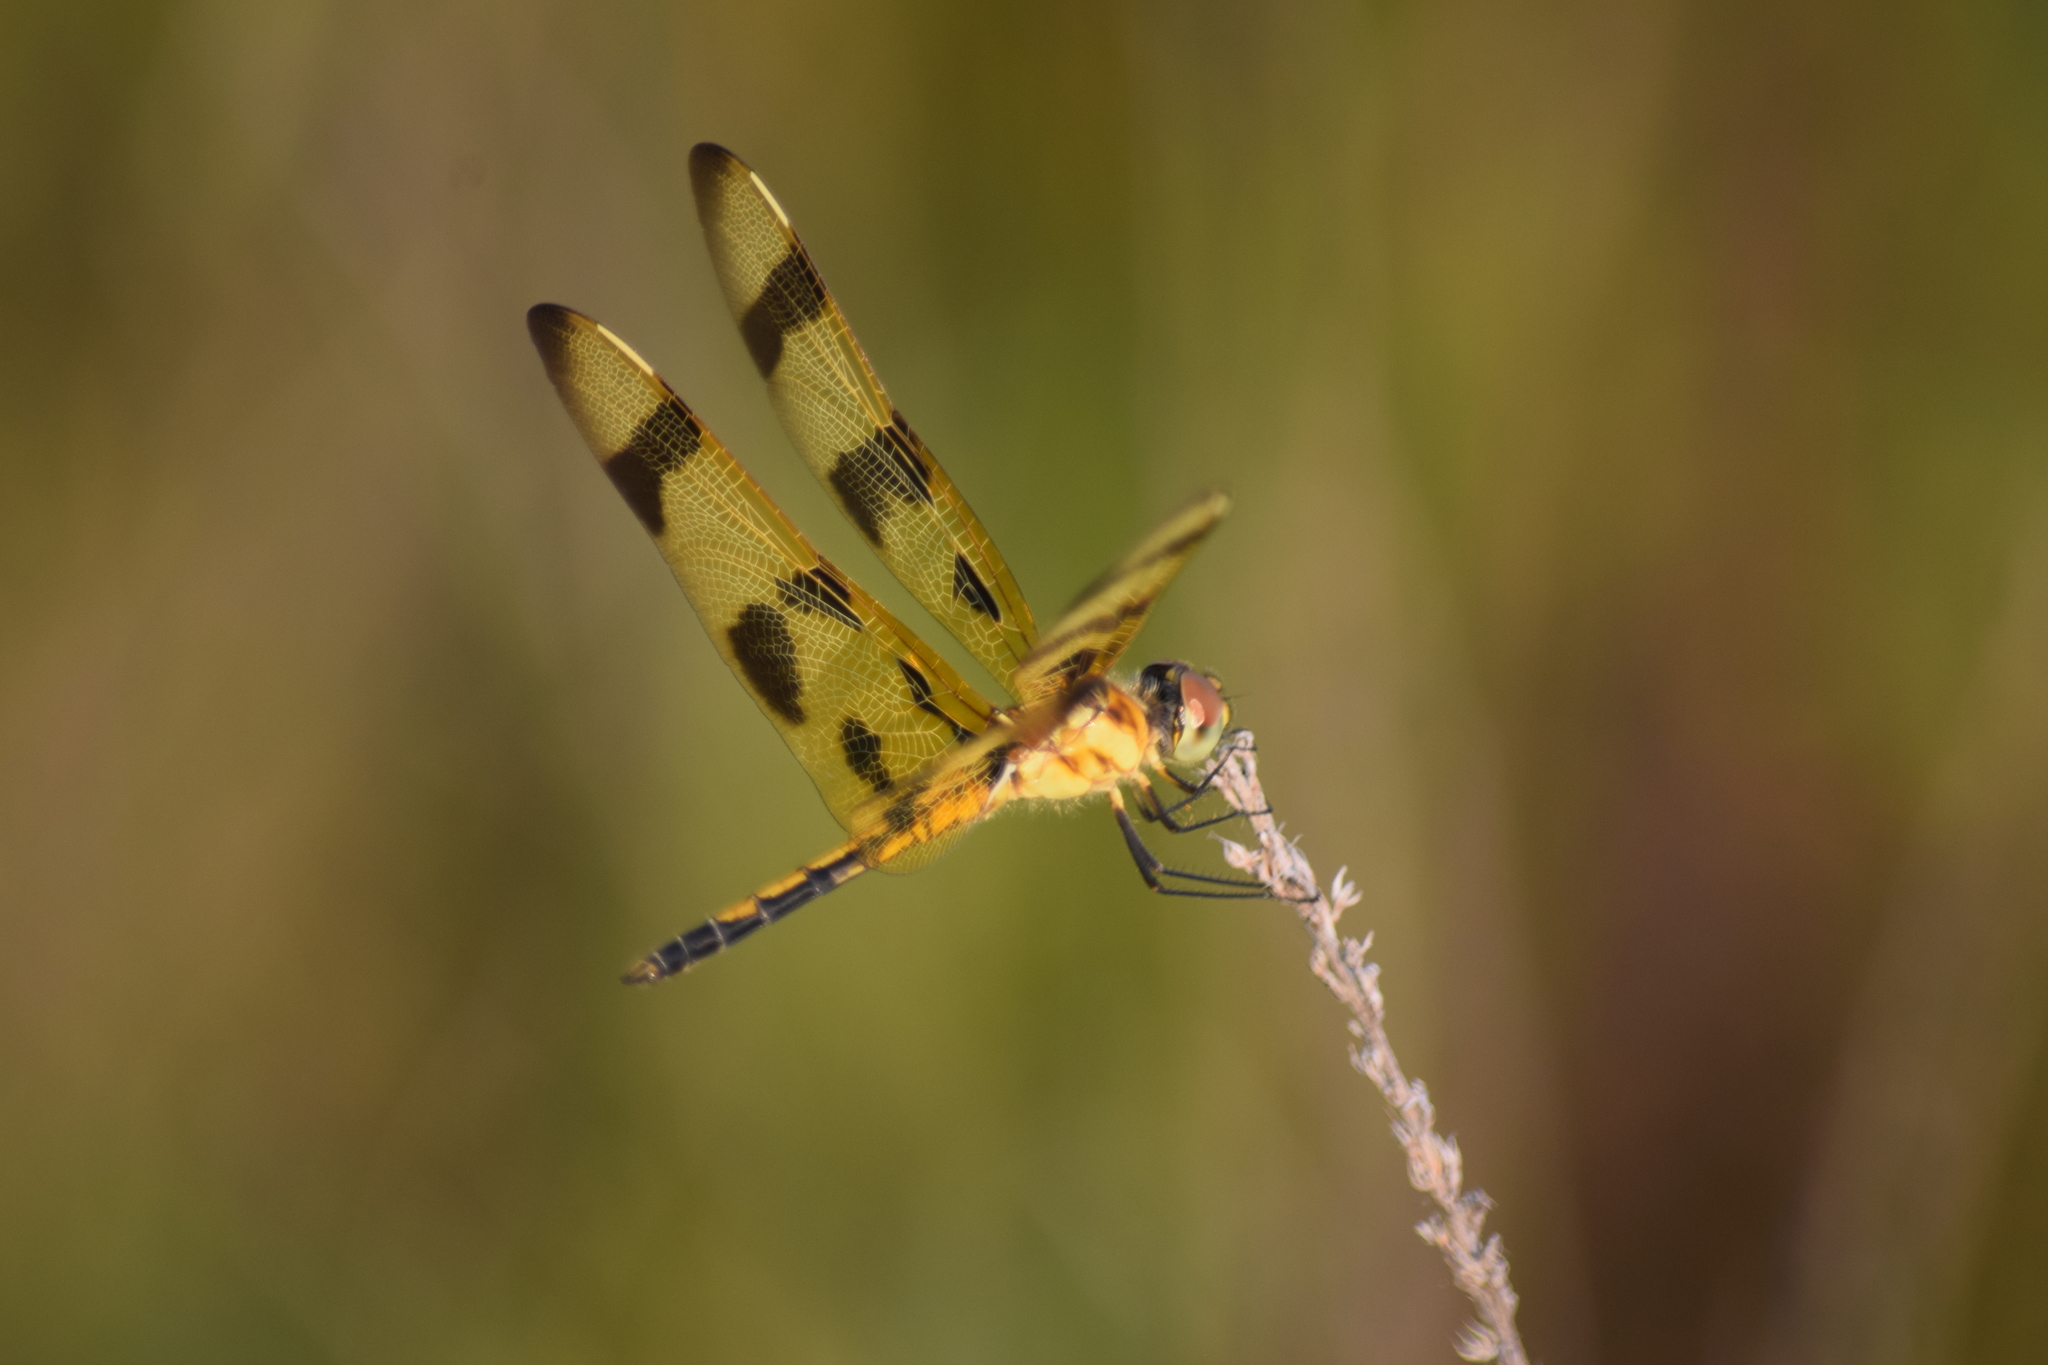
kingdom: Animalia
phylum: Arthropoda
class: Insecta
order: Odonata
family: Libellulidae
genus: Celithemis
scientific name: Celithemis eponina
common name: Halloween pennant
